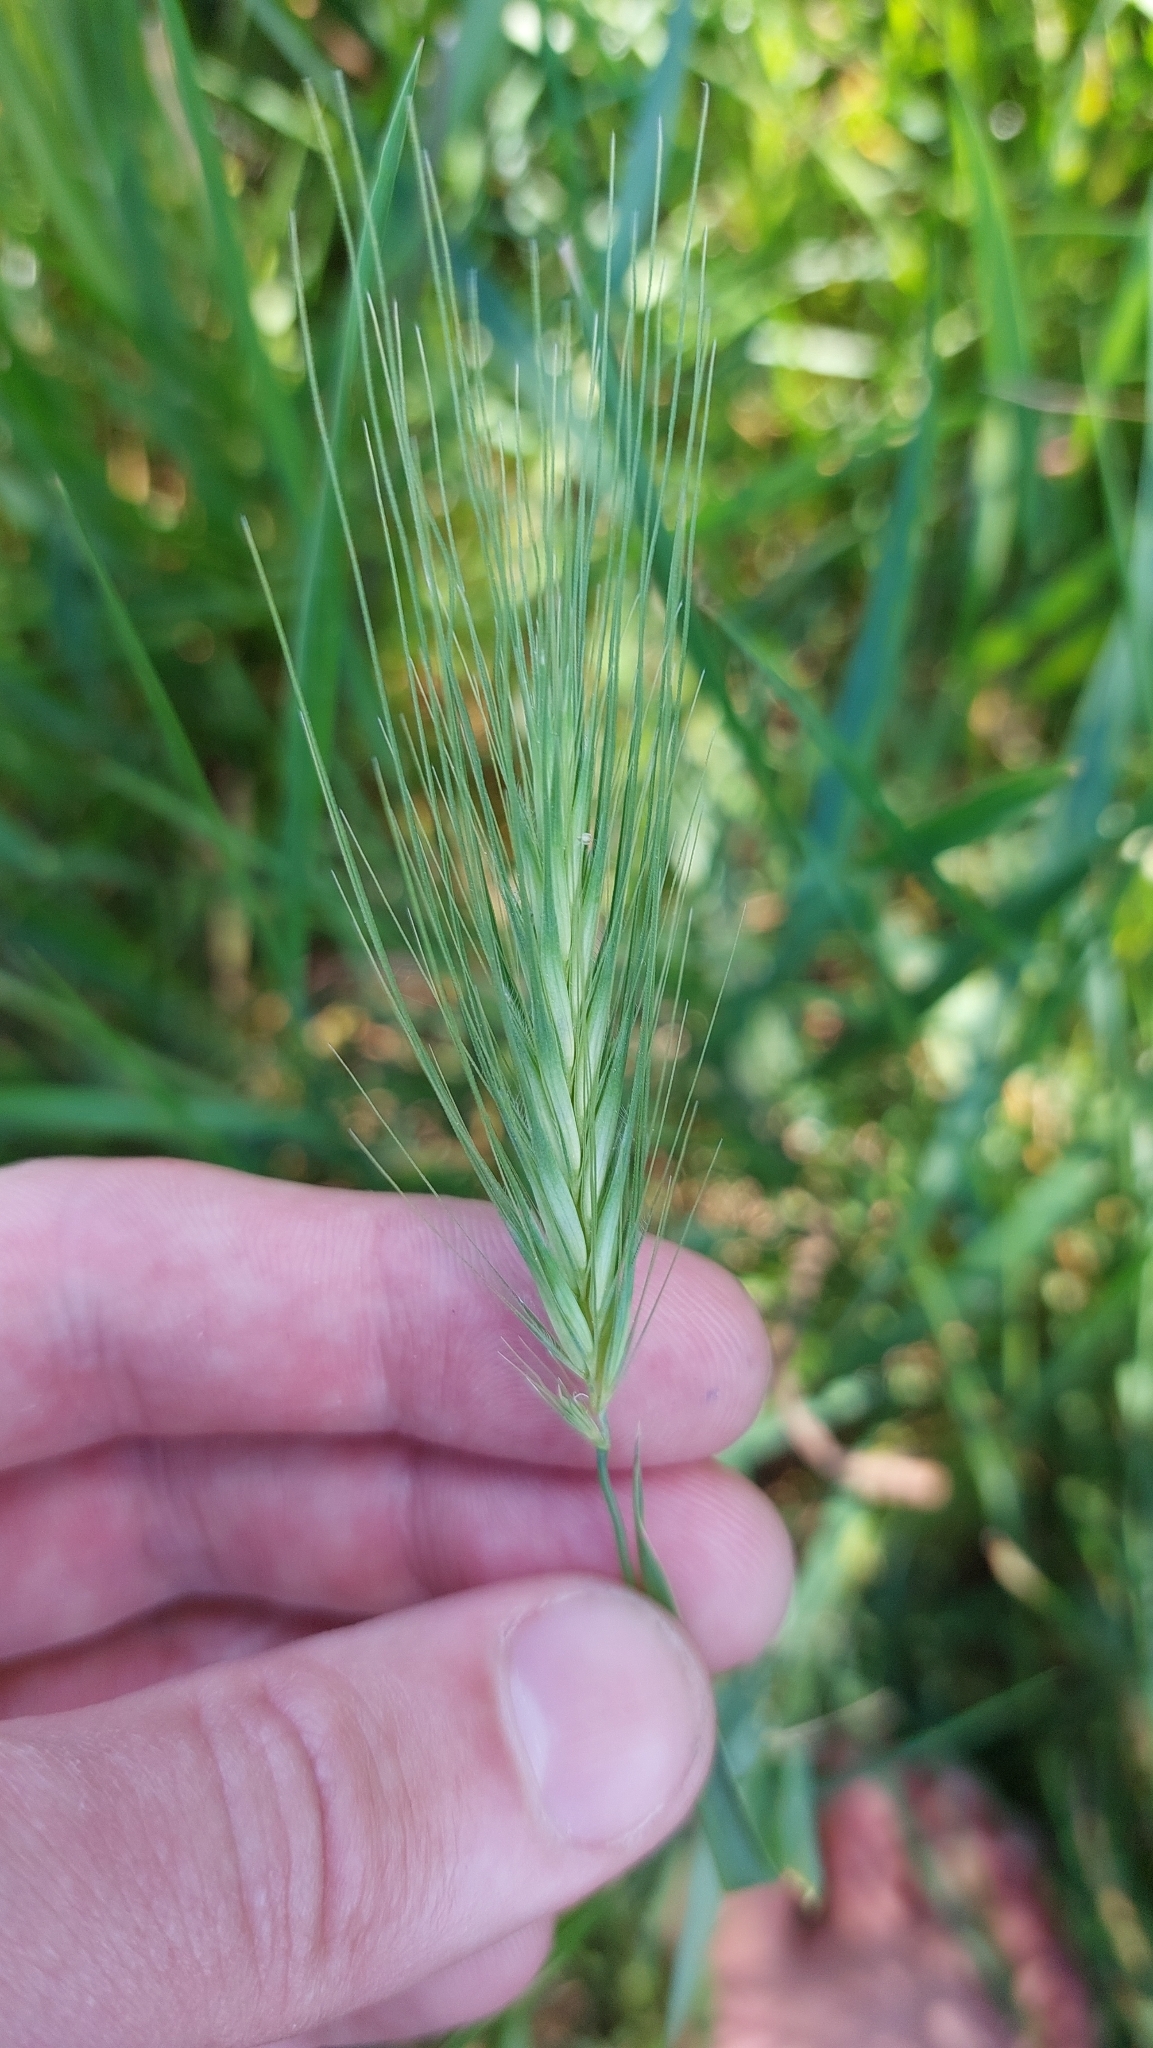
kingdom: Plantae
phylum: Tracheophyta
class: Liliopsida
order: Poales
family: Poaceae
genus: Hordeum
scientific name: Hordeum murinum
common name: Wall barley
